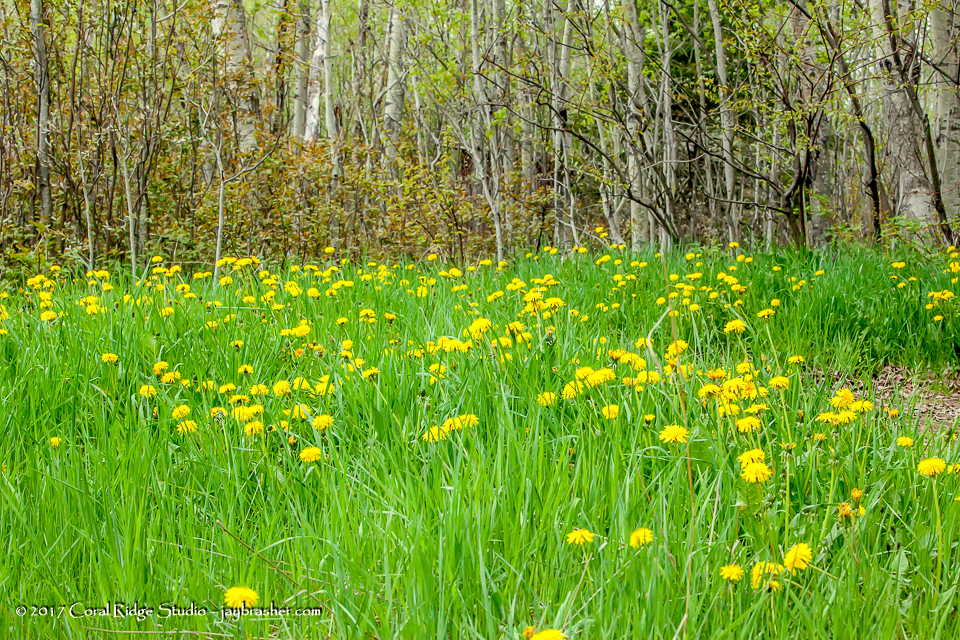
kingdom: Plantae
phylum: Tracheophyta
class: Magnoliopsida
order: Asterales
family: Asteraceae
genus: Taraxacum
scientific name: Taraxacum officinale
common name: Common dandelion
